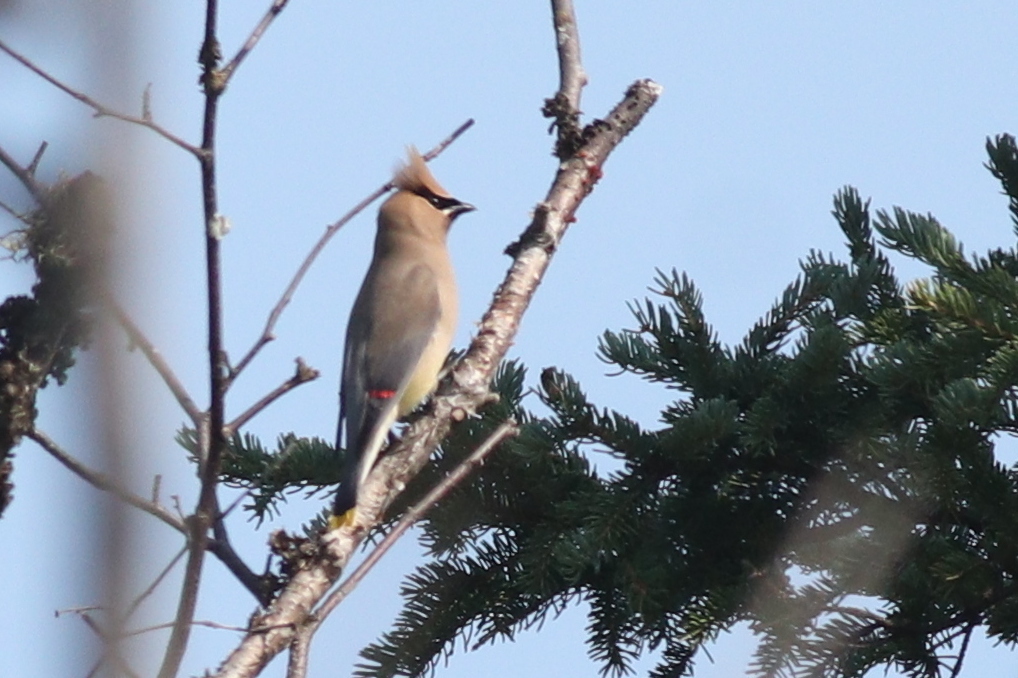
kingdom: Animalia
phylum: Chordata
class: Aves
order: Passeriformes
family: Bombycillidae
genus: Bombycilla
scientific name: Bombycilla cedrorum
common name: Cedar waxwing
